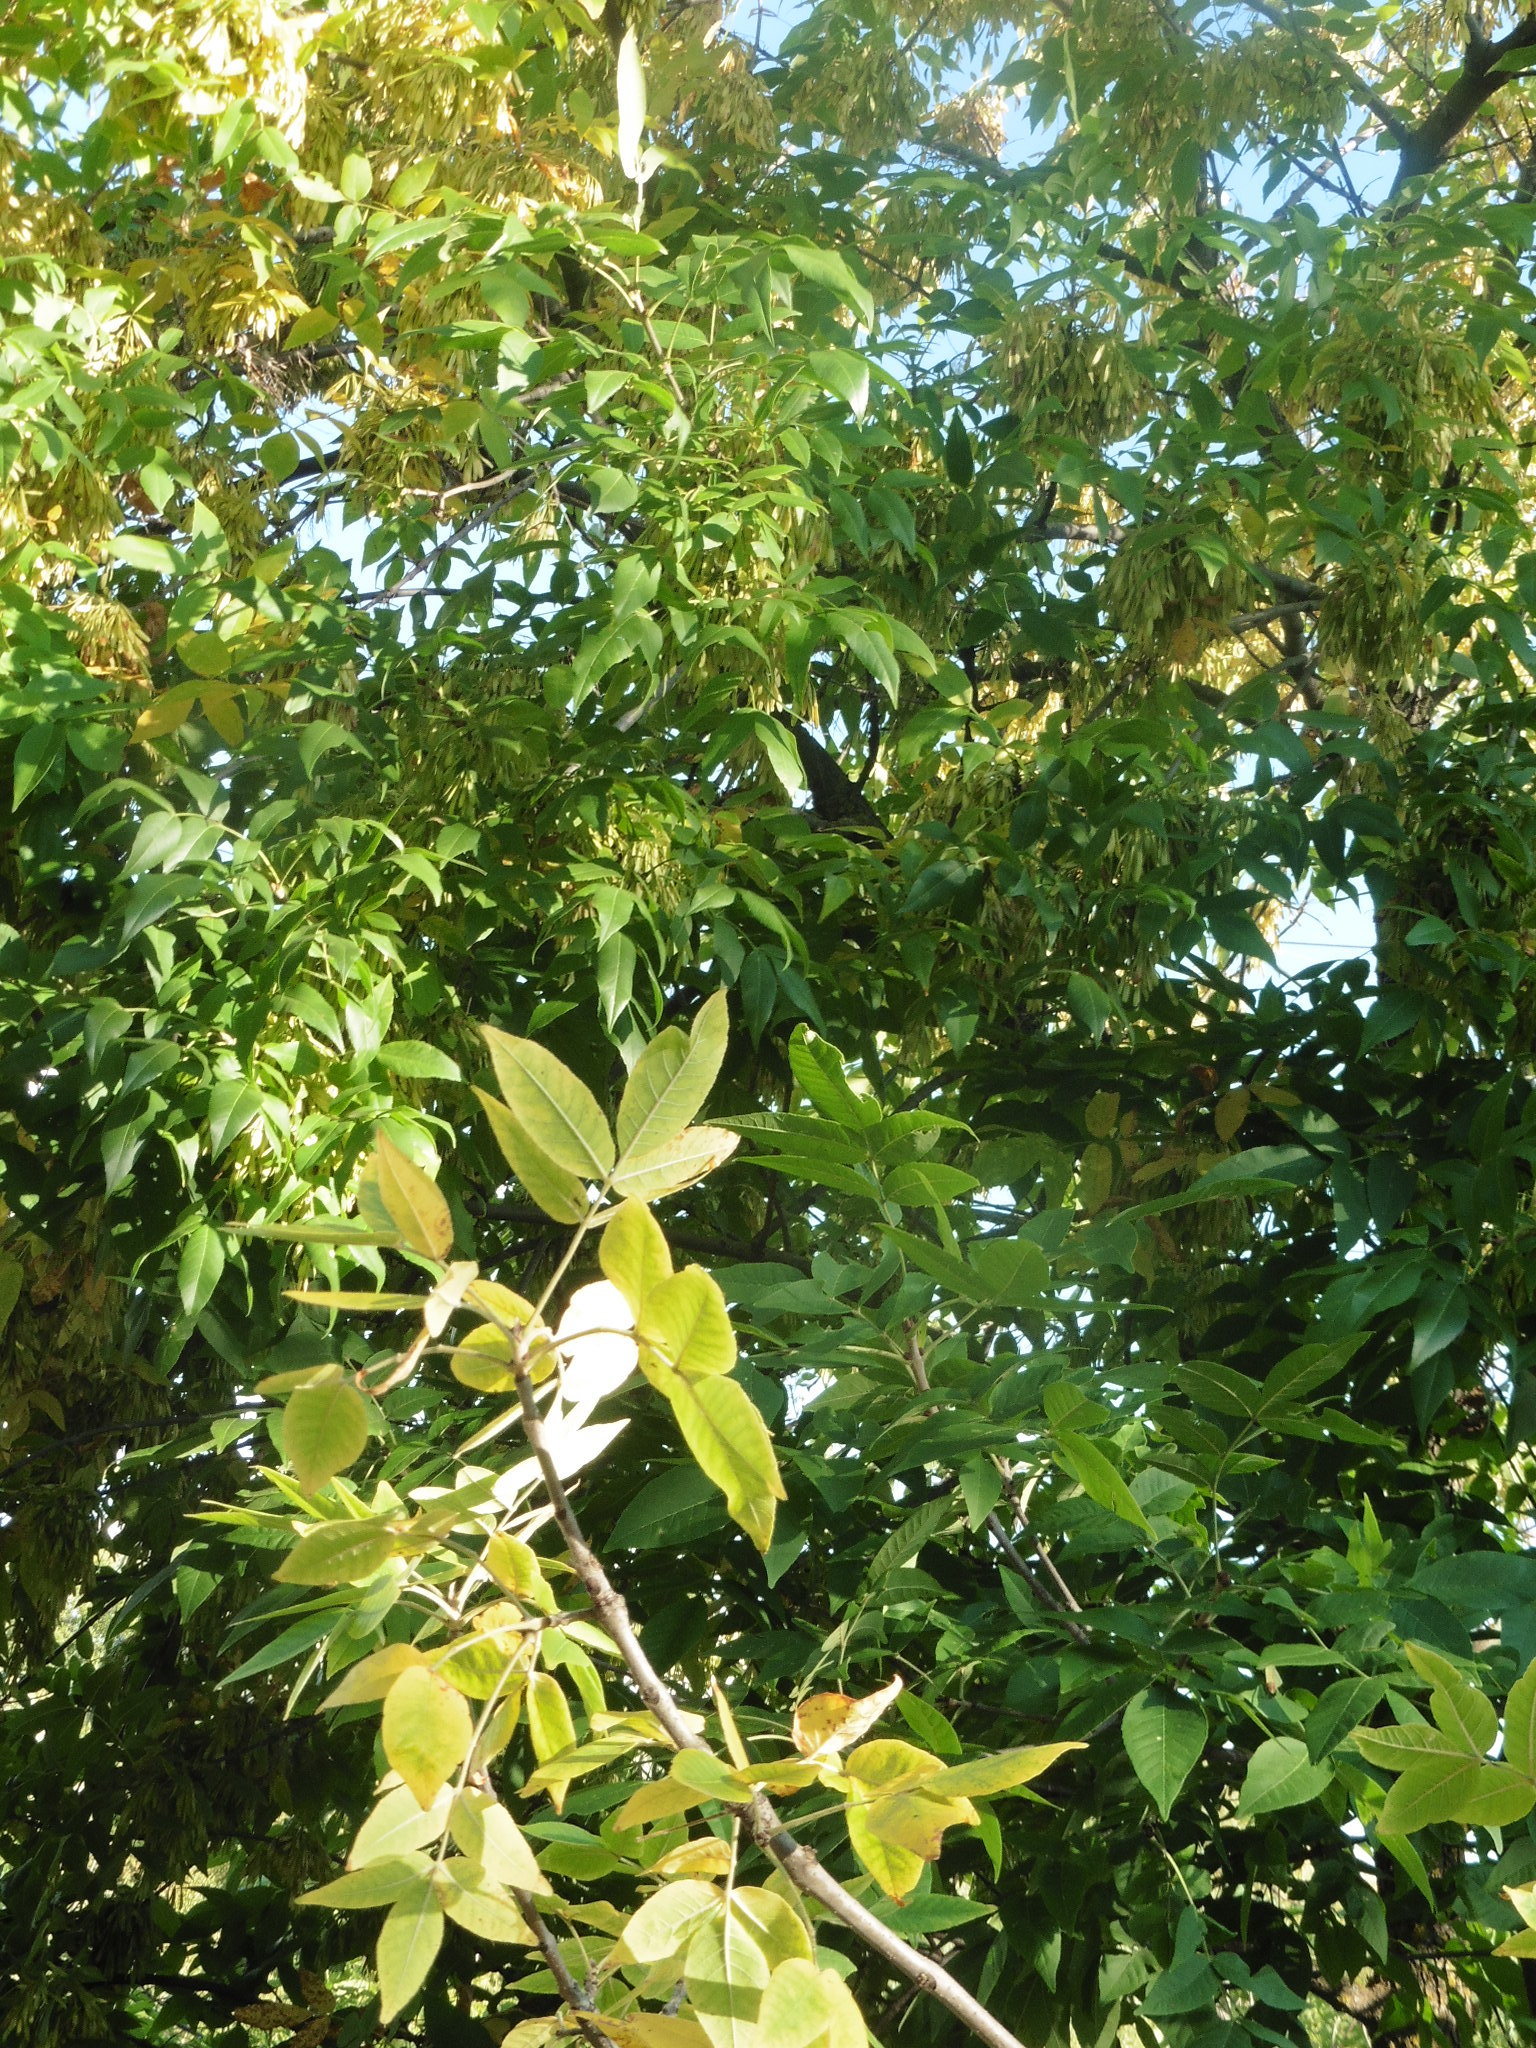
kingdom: Plantae
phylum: Tracheophyta
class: Magnoliopsida
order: Lamiales
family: Oleaceae
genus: Fraxinus
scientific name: Fraxinus pennsylvanica
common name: Green ash
